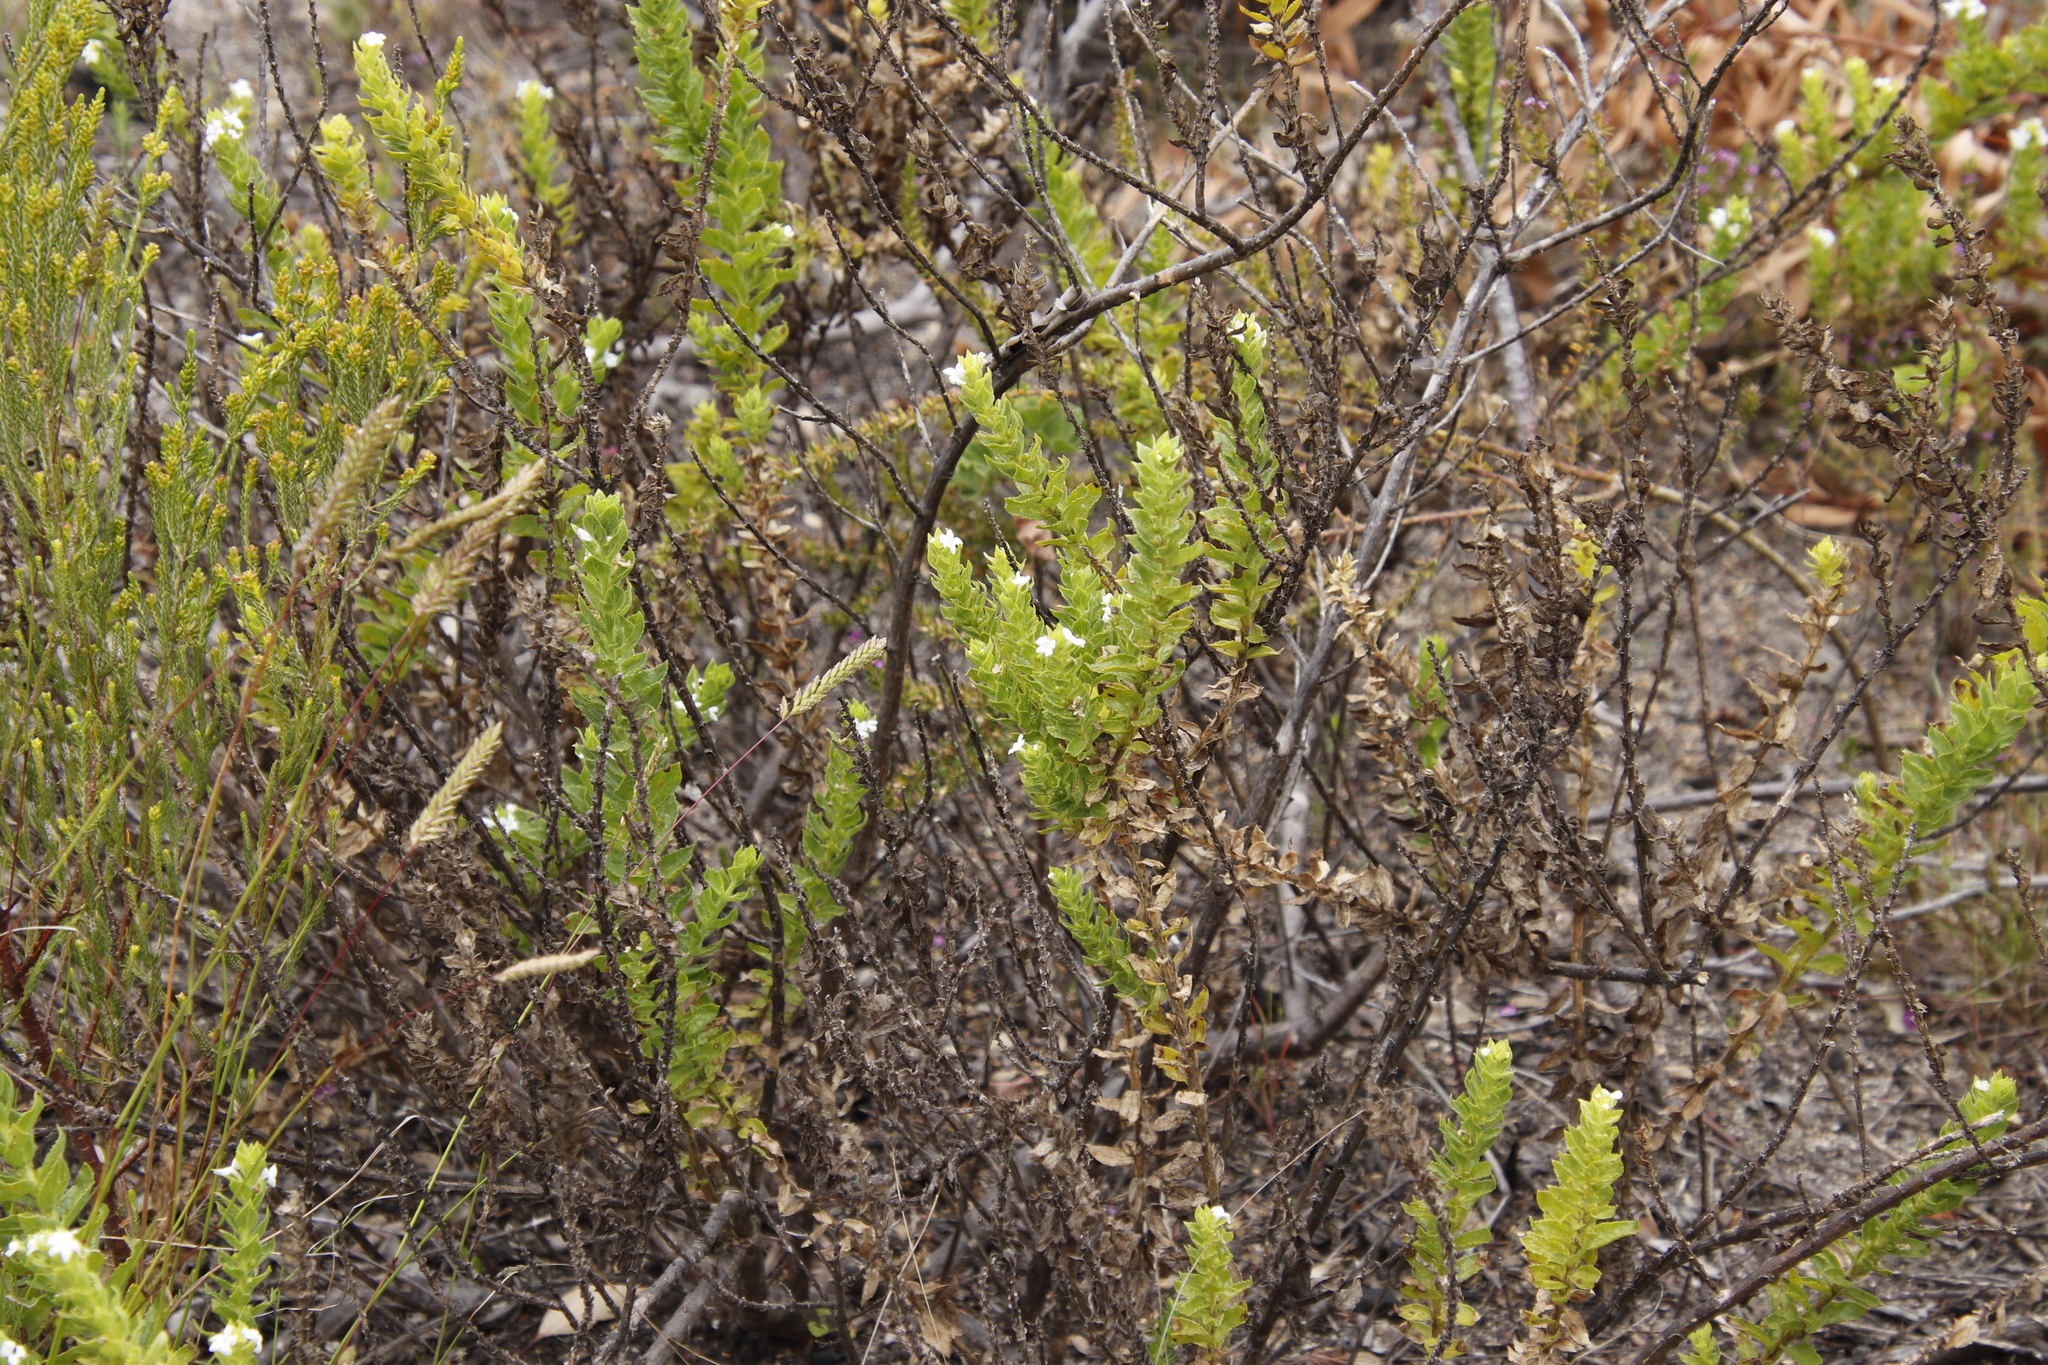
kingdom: Plantae
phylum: Tracheophyta
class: Magnoliopsida
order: Lamiales
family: Scrophulariaceae
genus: Oftia
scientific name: Oftia africana
